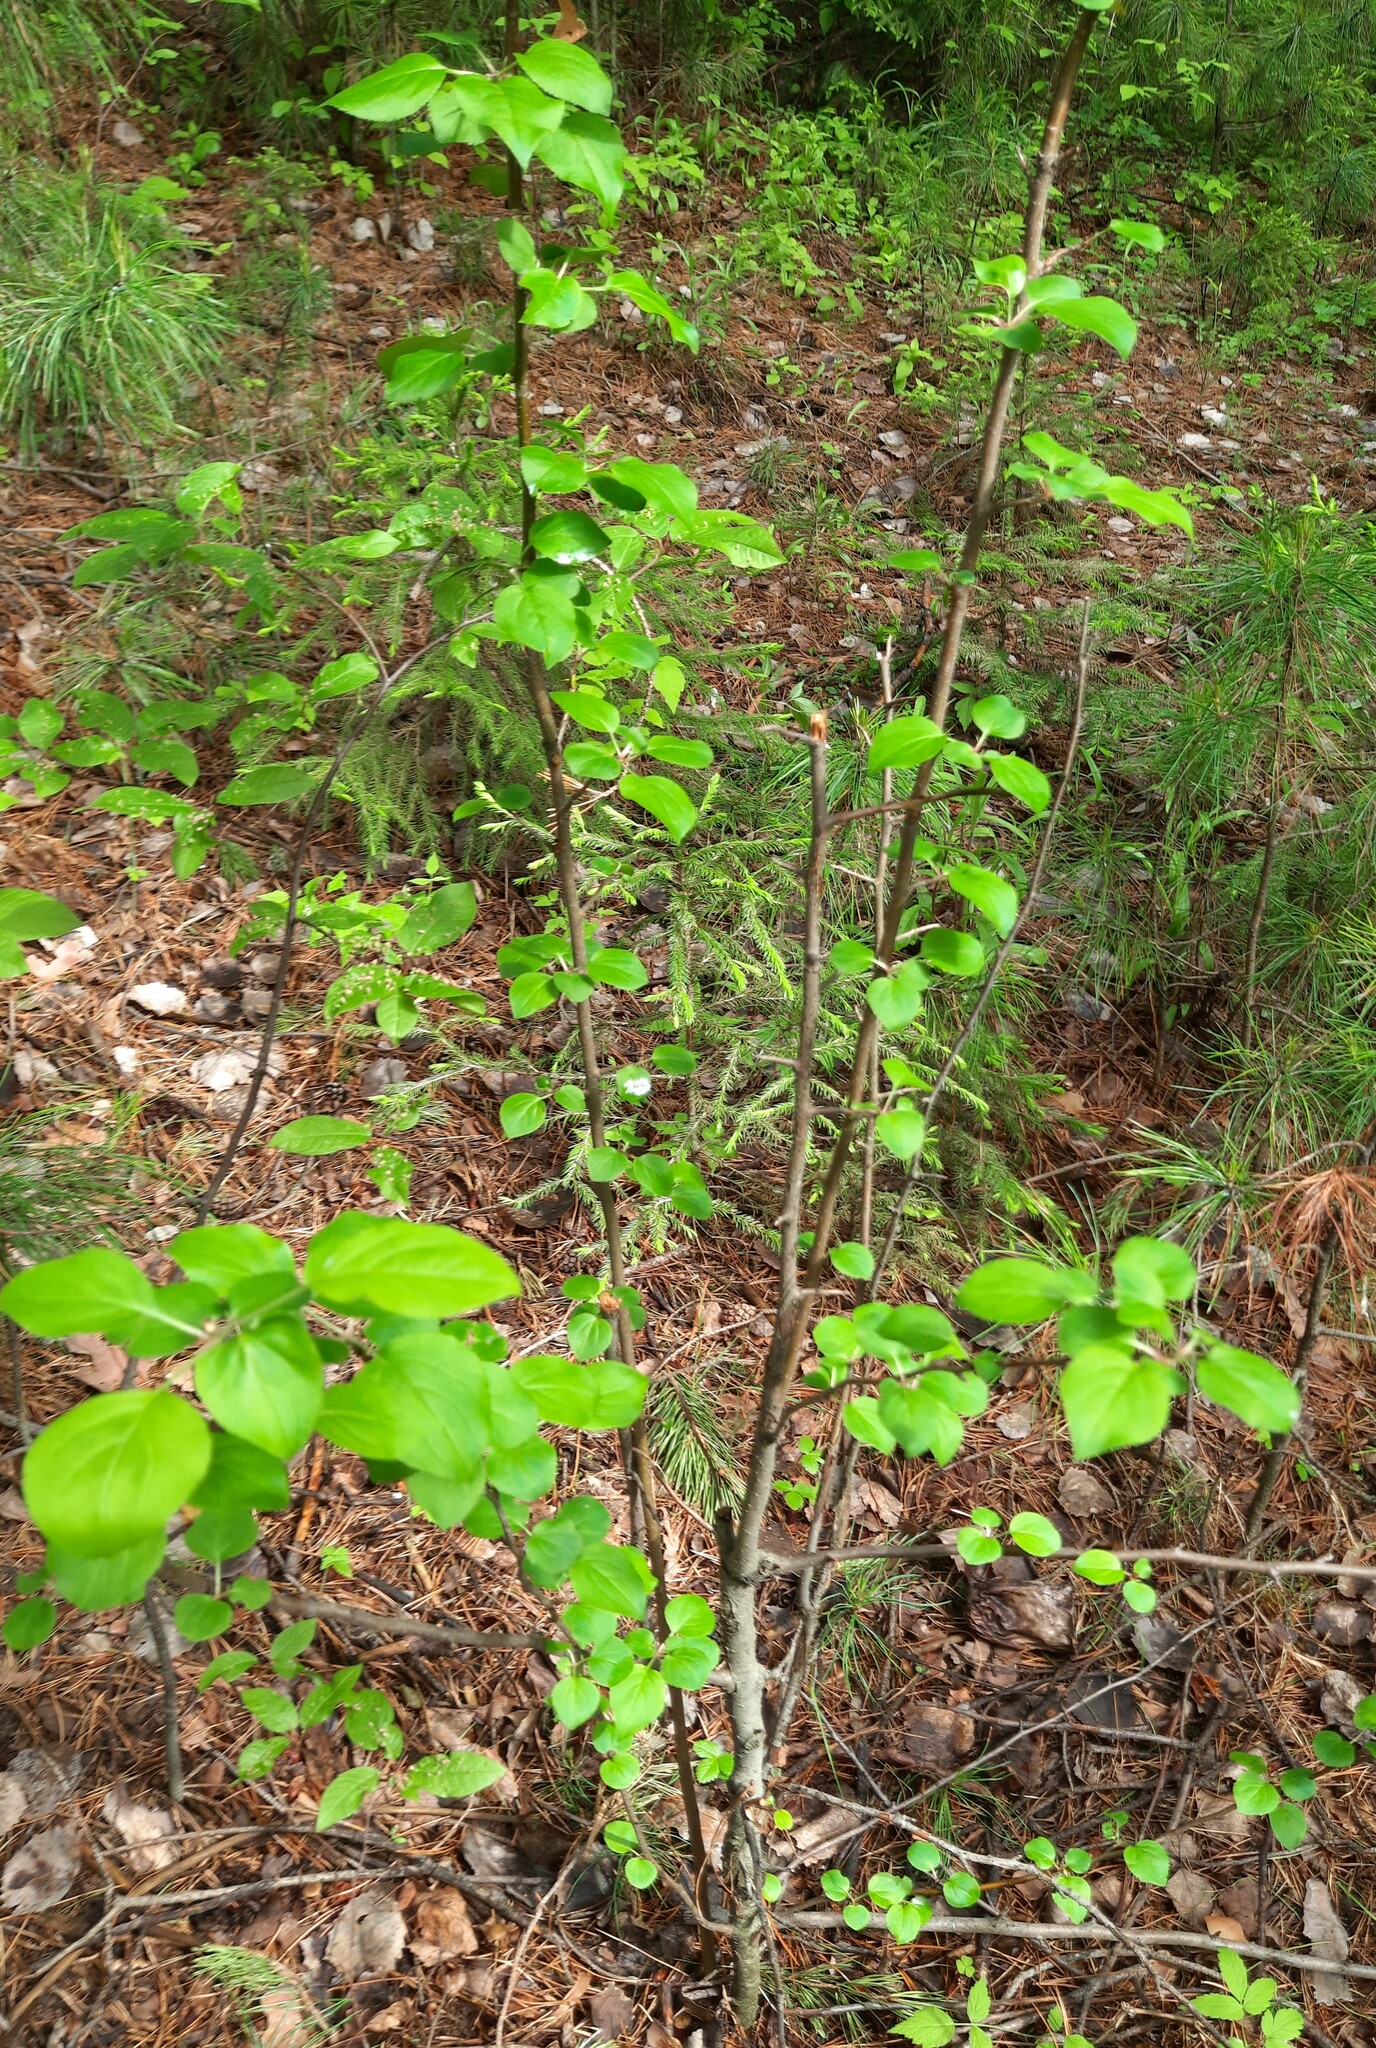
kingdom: Plantae
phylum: Tracheophyta
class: Magnoliopsida
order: Rosales
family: Rosaceae
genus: Malus
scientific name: Malus baccata
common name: Siberian crab
